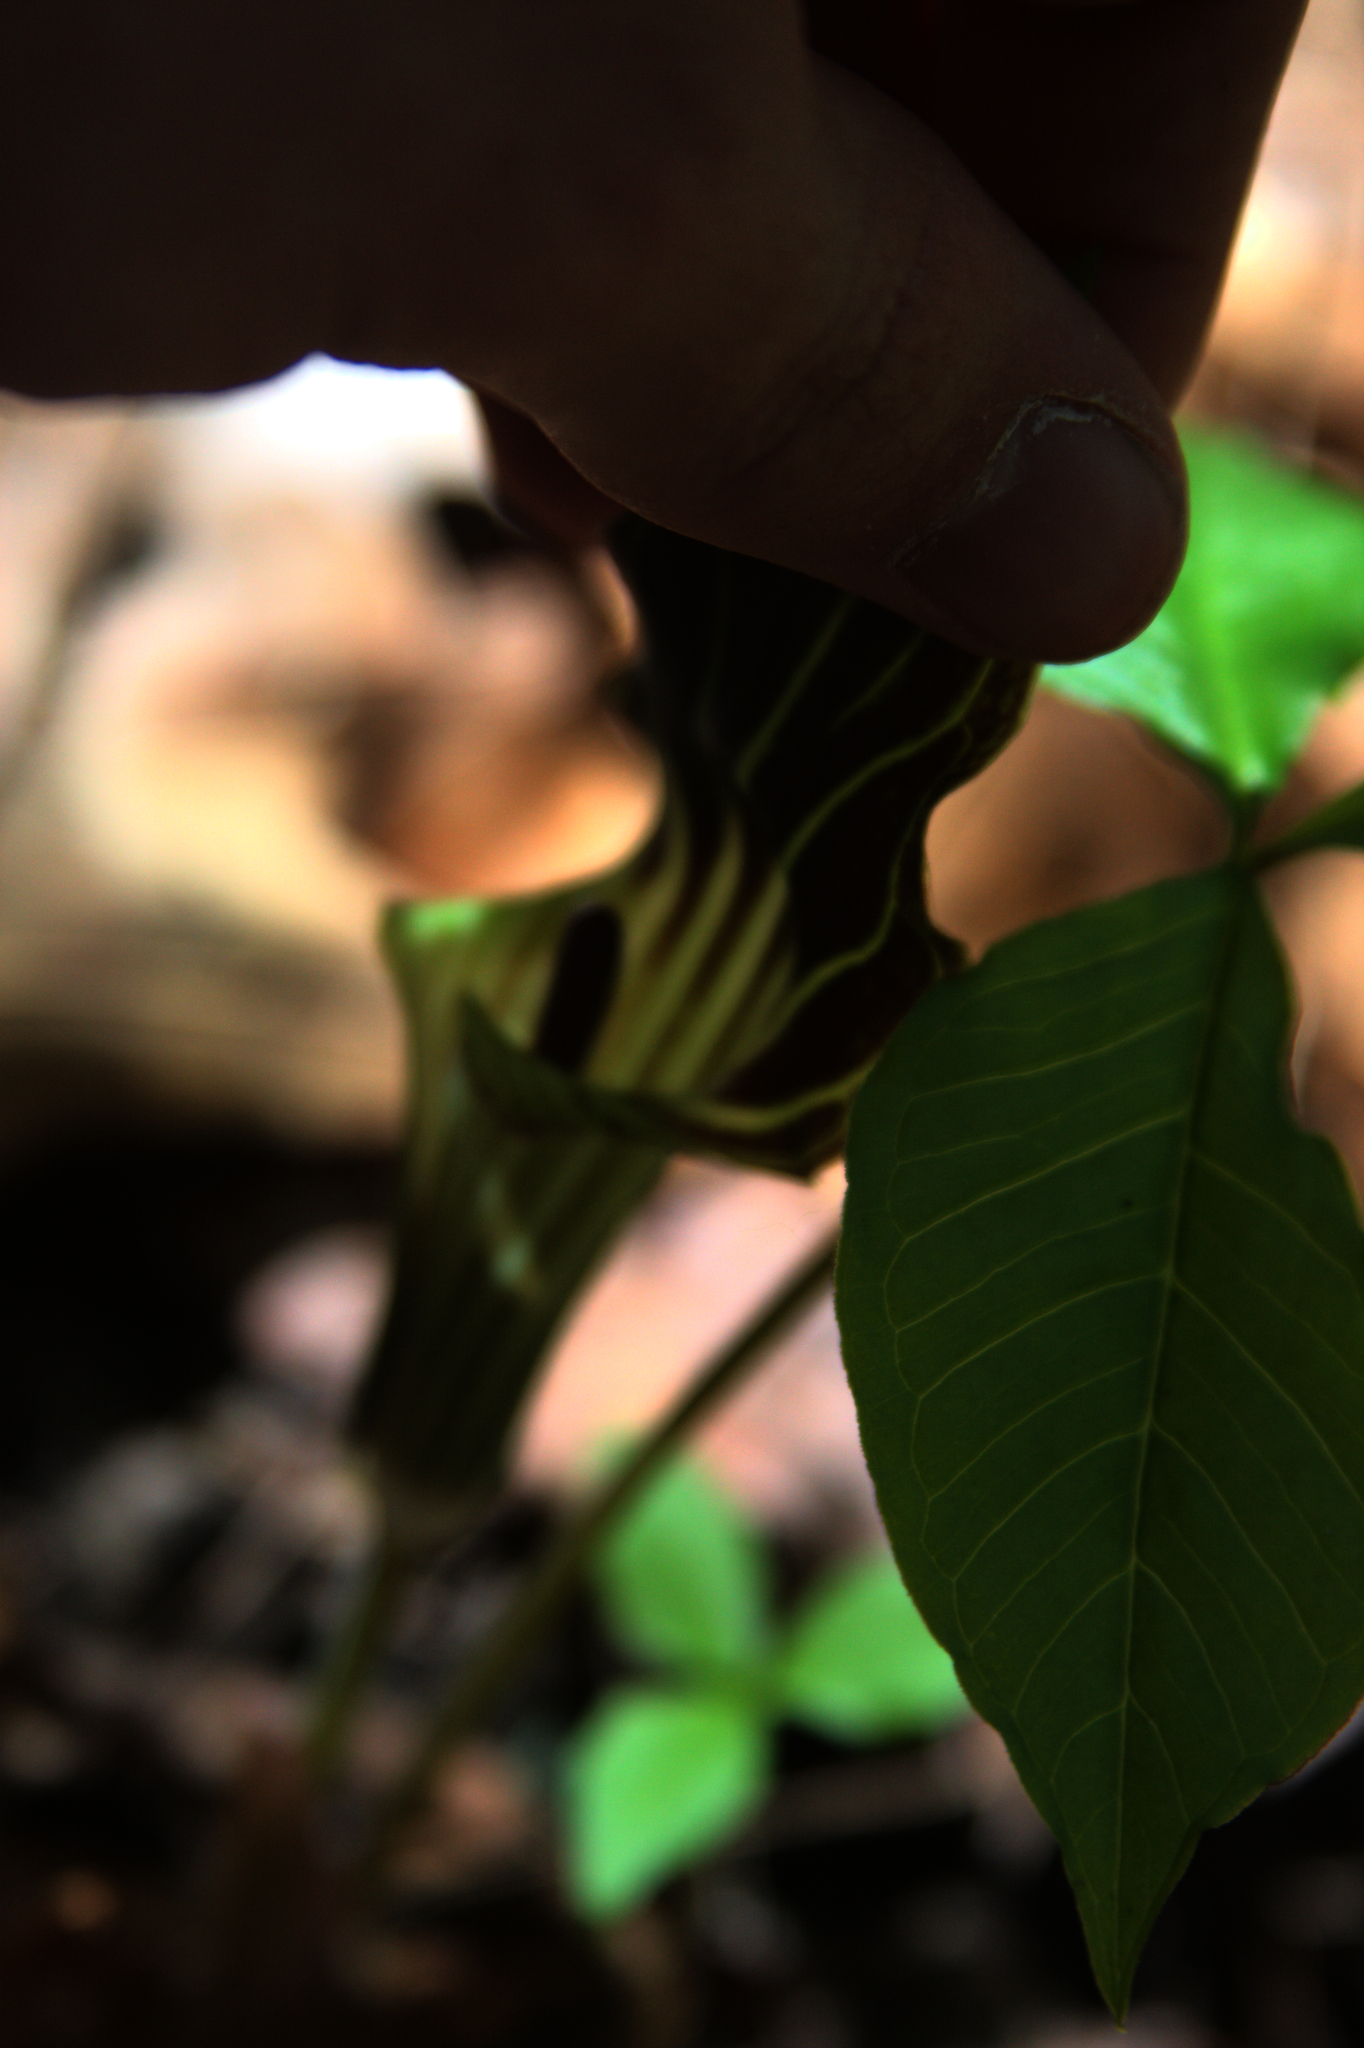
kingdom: Plantae
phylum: Tracheophyta
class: Liliopsida
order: Alismatales
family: Araceae
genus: Arisaema
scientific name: Arisaema triphyllum
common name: Jack-in-the-pulpit
